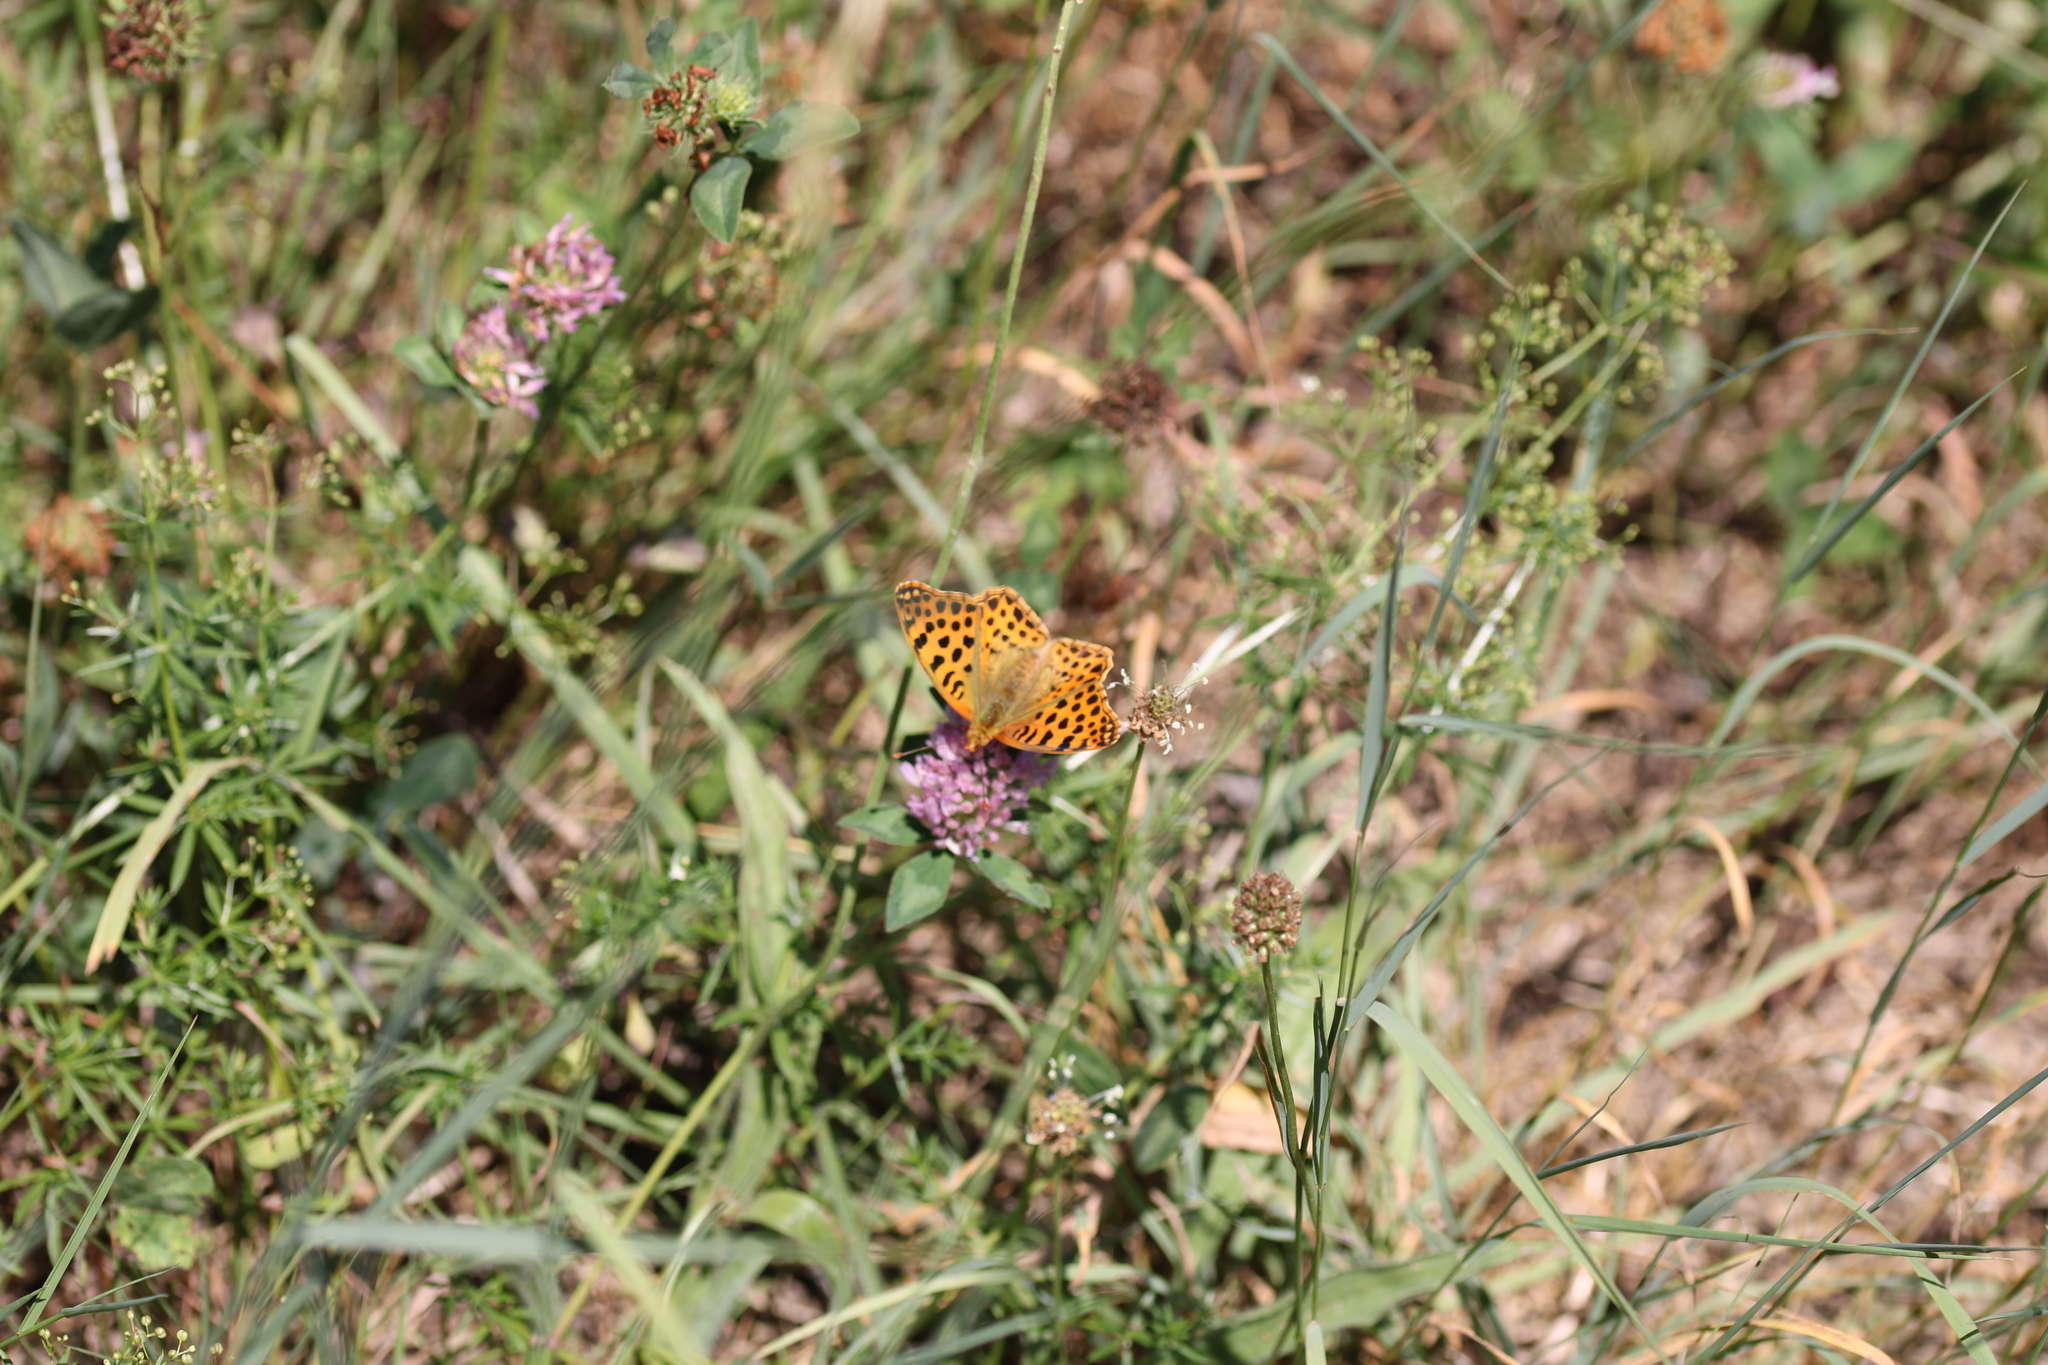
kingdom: Animalia
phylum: Arthropoda
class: Insecta
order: Lepidoptera
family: Nymphalidae
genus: Issoria
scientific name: Issoria lathonia
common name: Queen of spain fritillary
